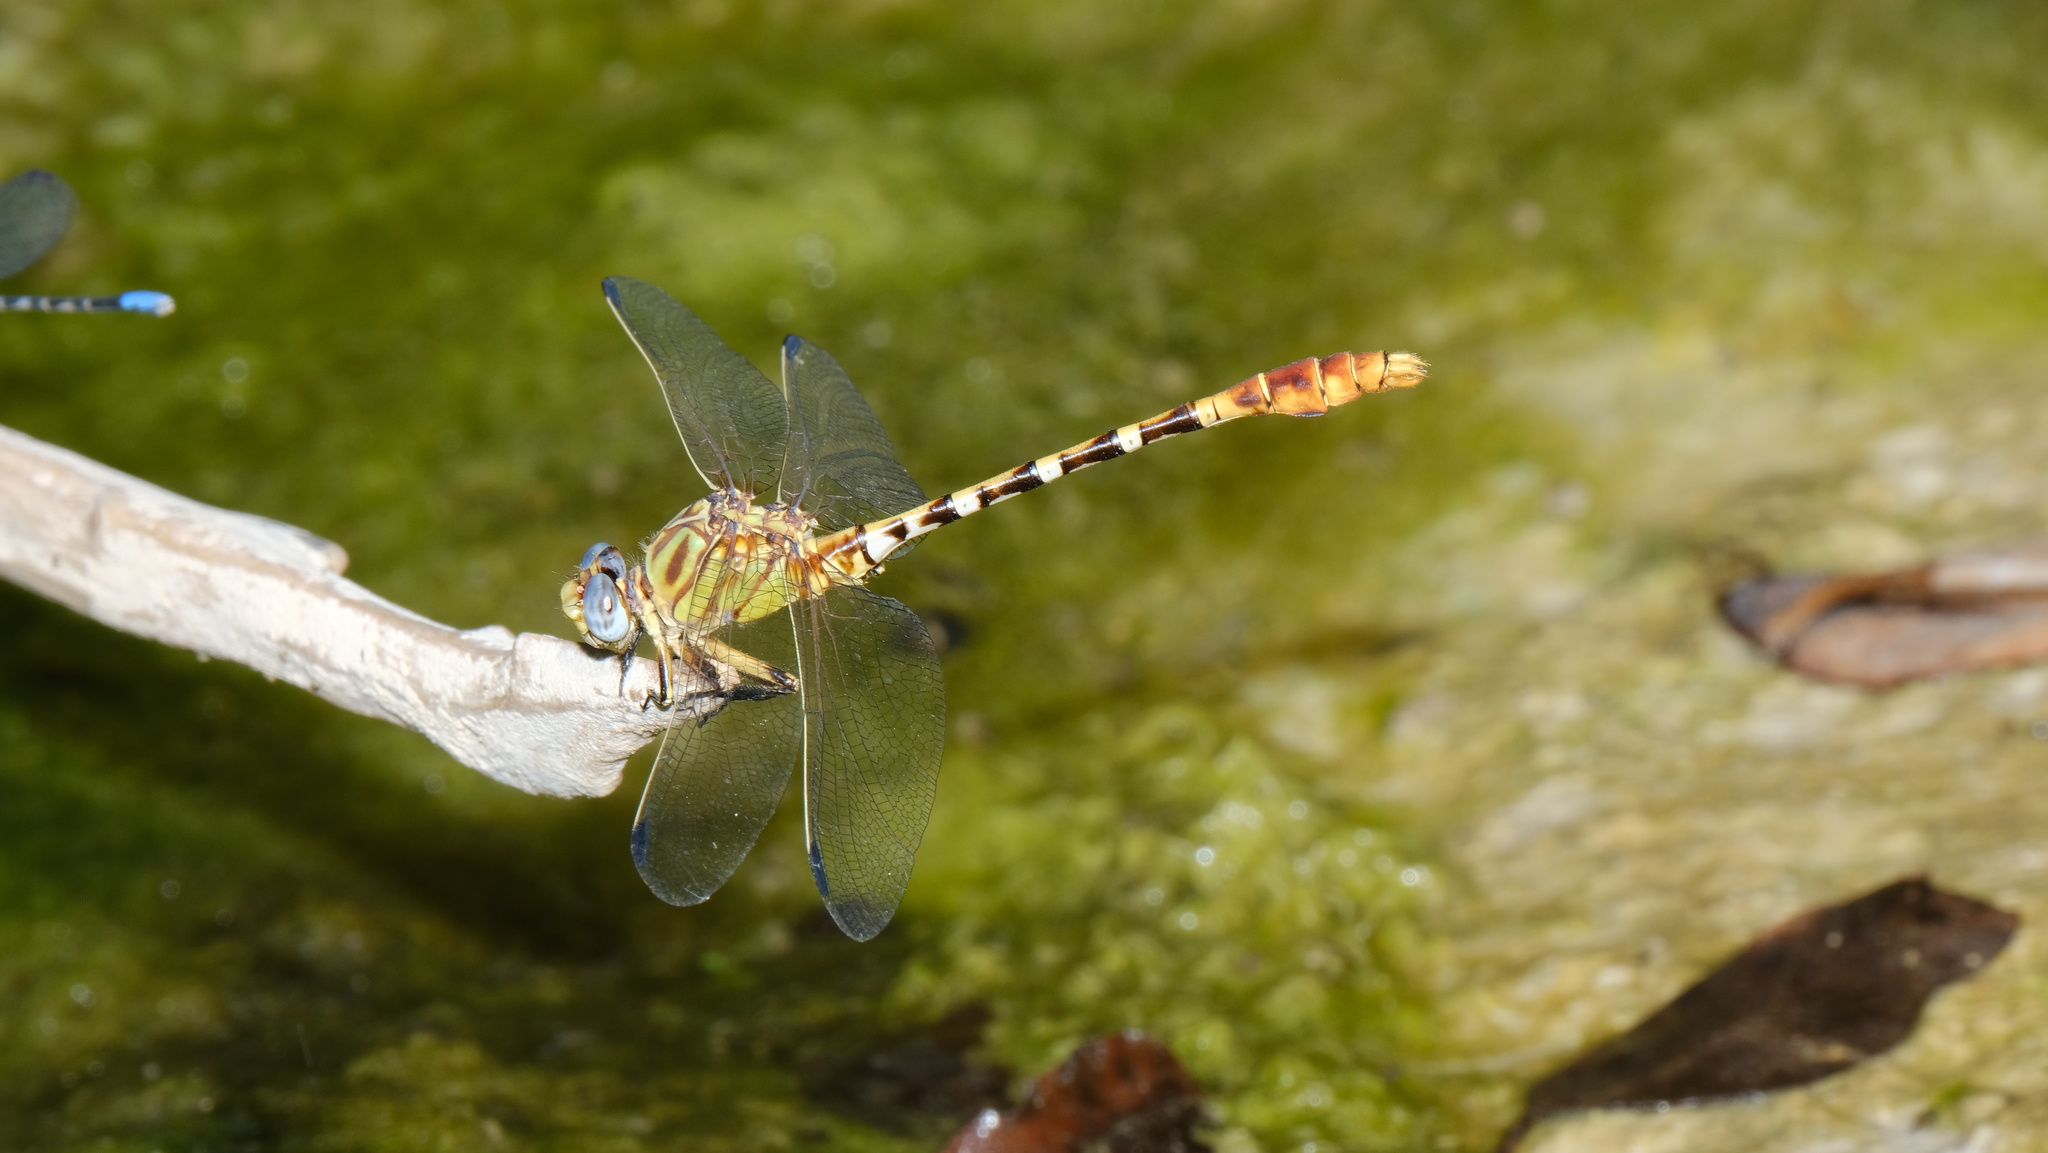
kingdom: Animalia
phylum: Arthropoda
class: Insecta
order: Odonata
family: Gomphidae
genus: Erpetogomphus
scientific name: Erpetogomphus designatus
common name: Eastern ringtail
